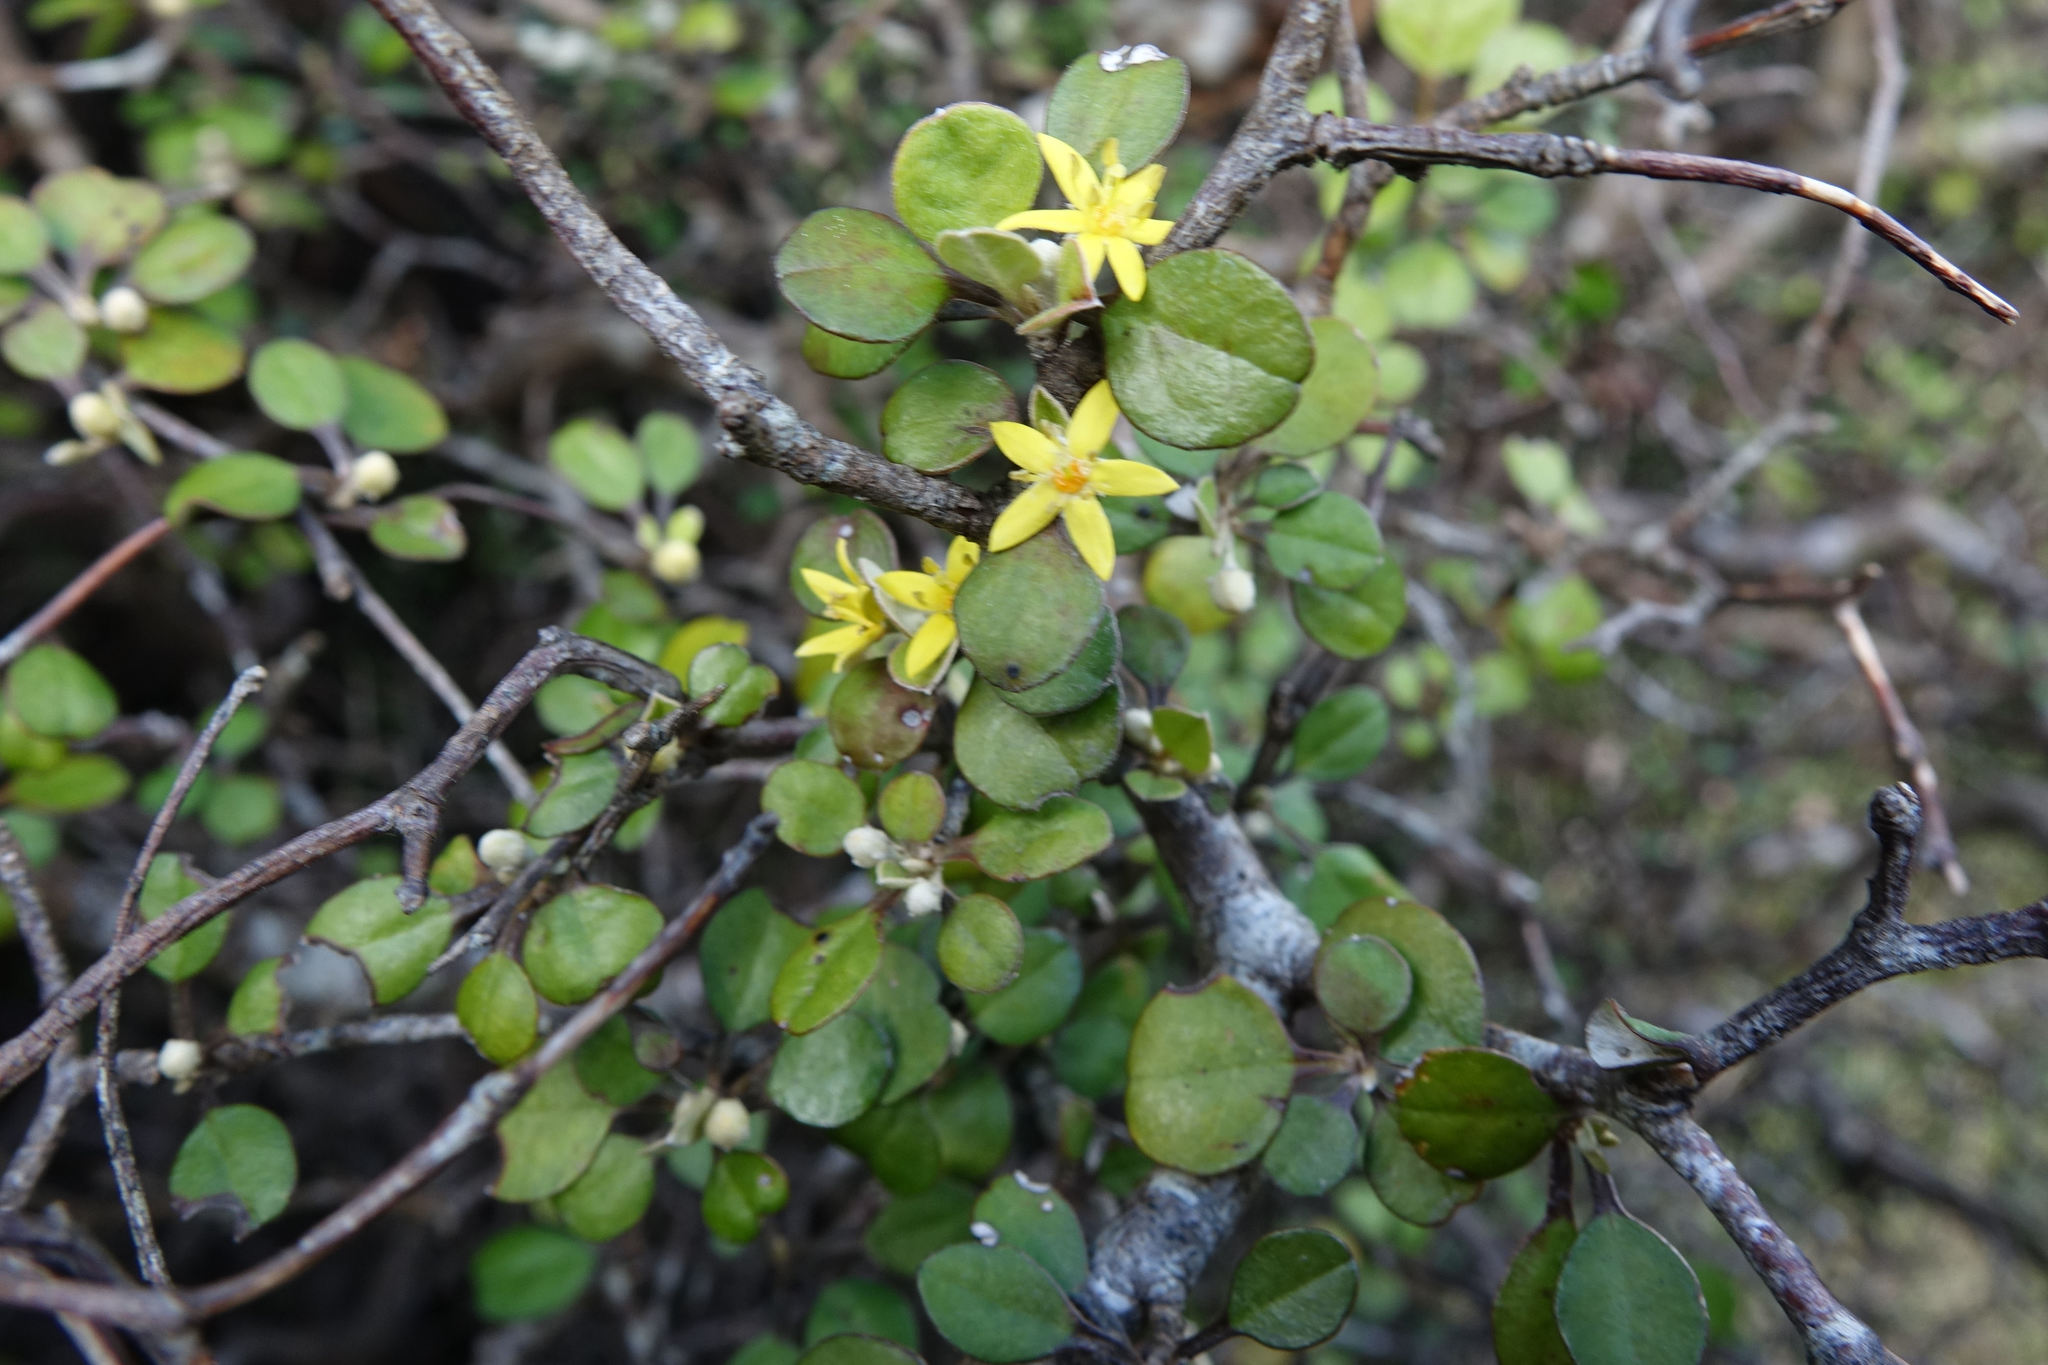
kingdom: Plantae
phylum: Tracheophyta
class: Magnoliopsida
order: Asterales
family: Argophyllaceae
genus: Corokia
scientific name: Corokia cotoneaster
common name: Wire nettingbush
